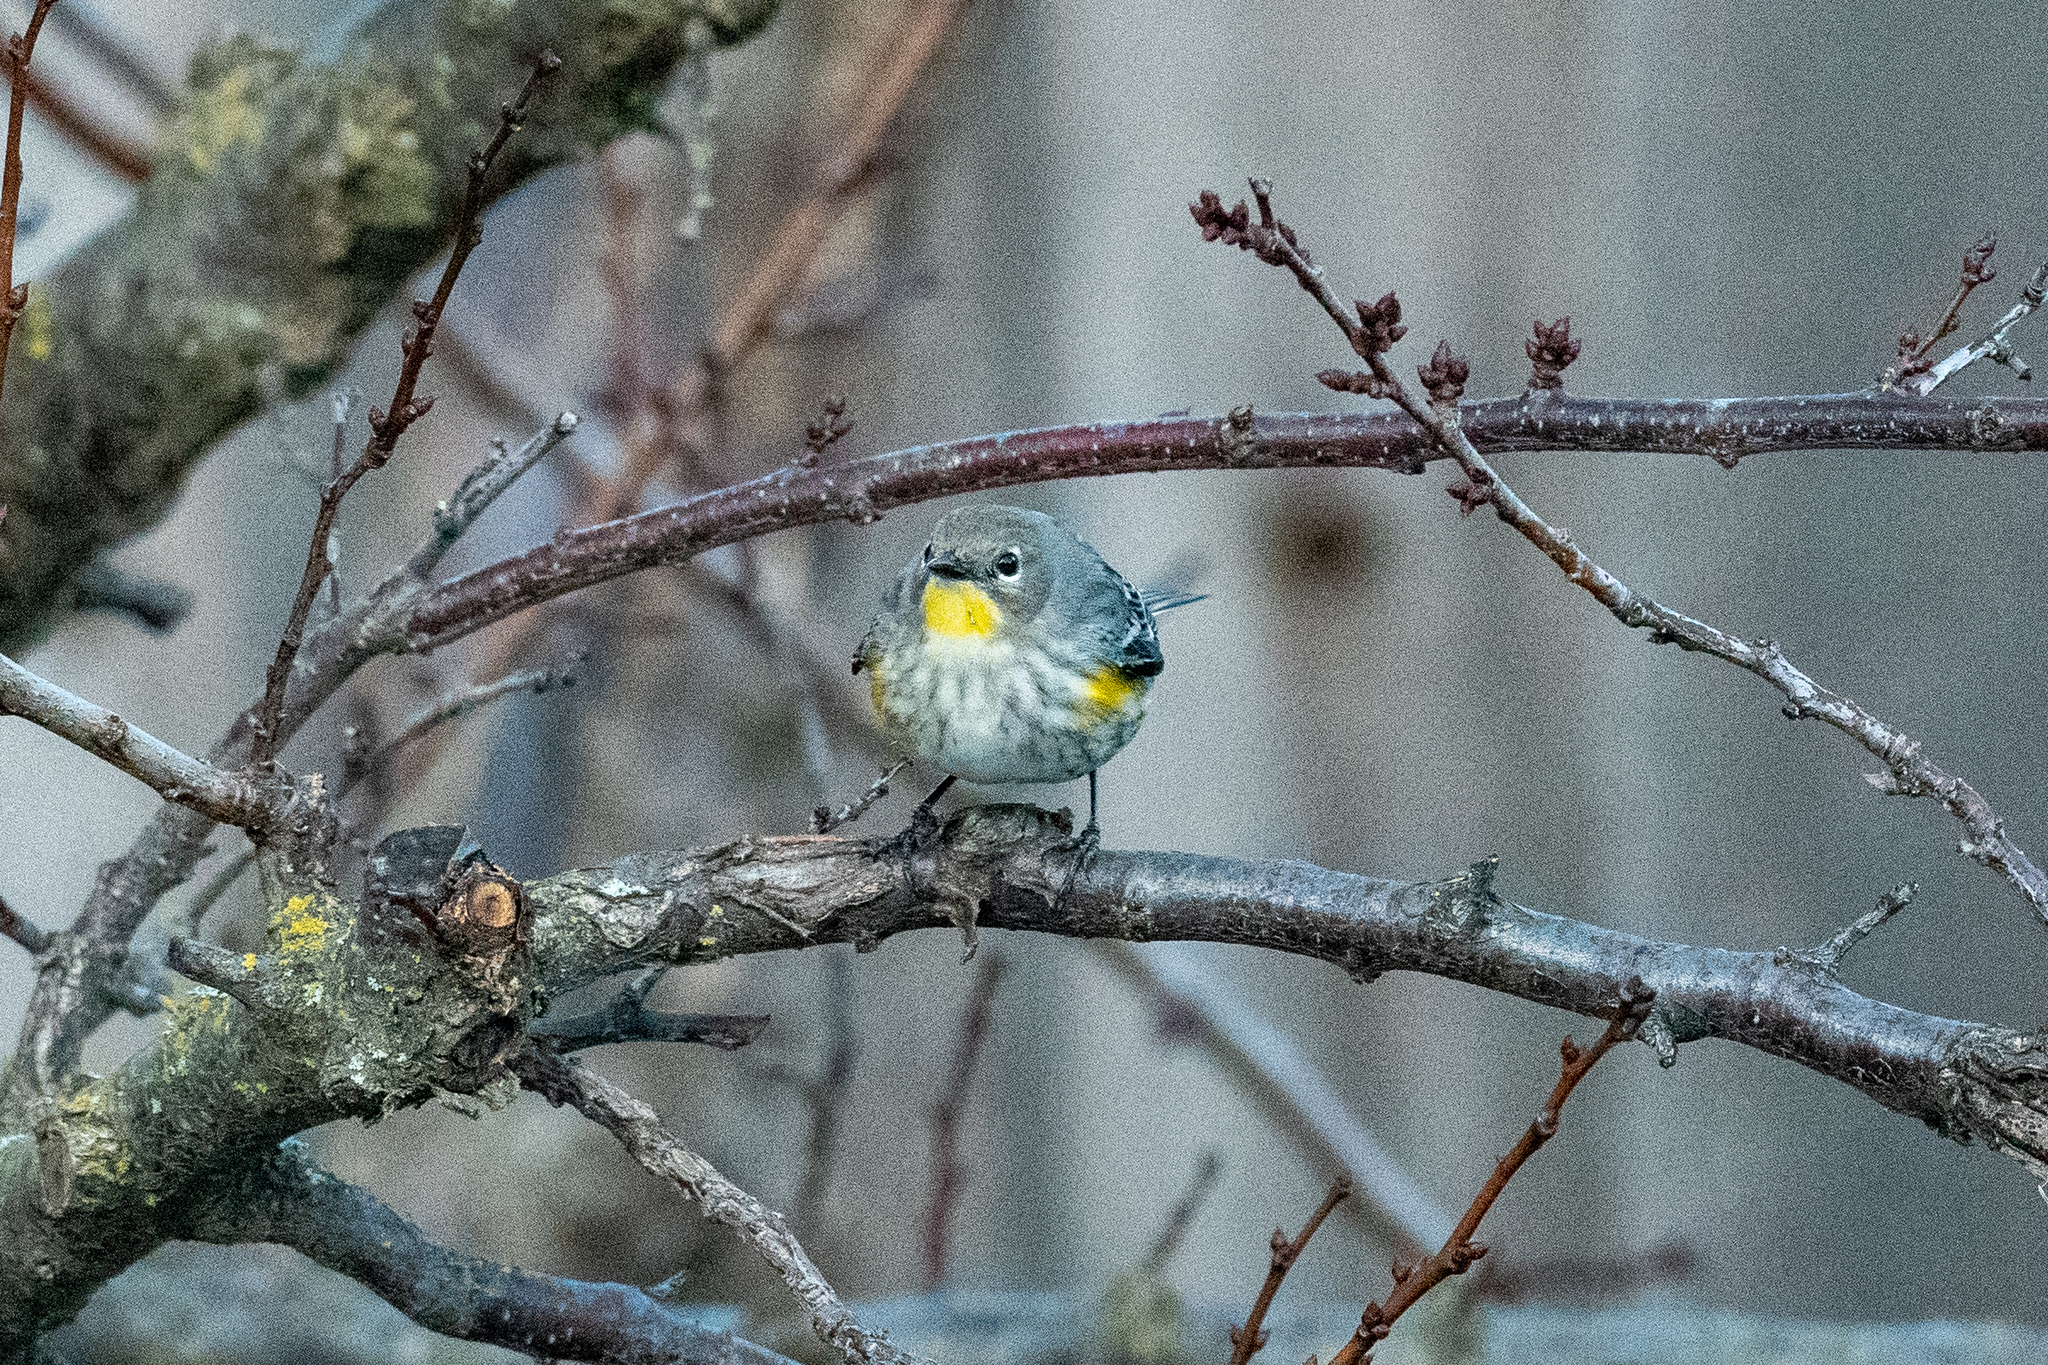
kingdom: Animalia
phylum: Chordata
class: Aves
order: Passeriformes
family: Parulidae
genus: Setophaga
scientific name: Setophaga coronata
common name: Myrtle warbler
